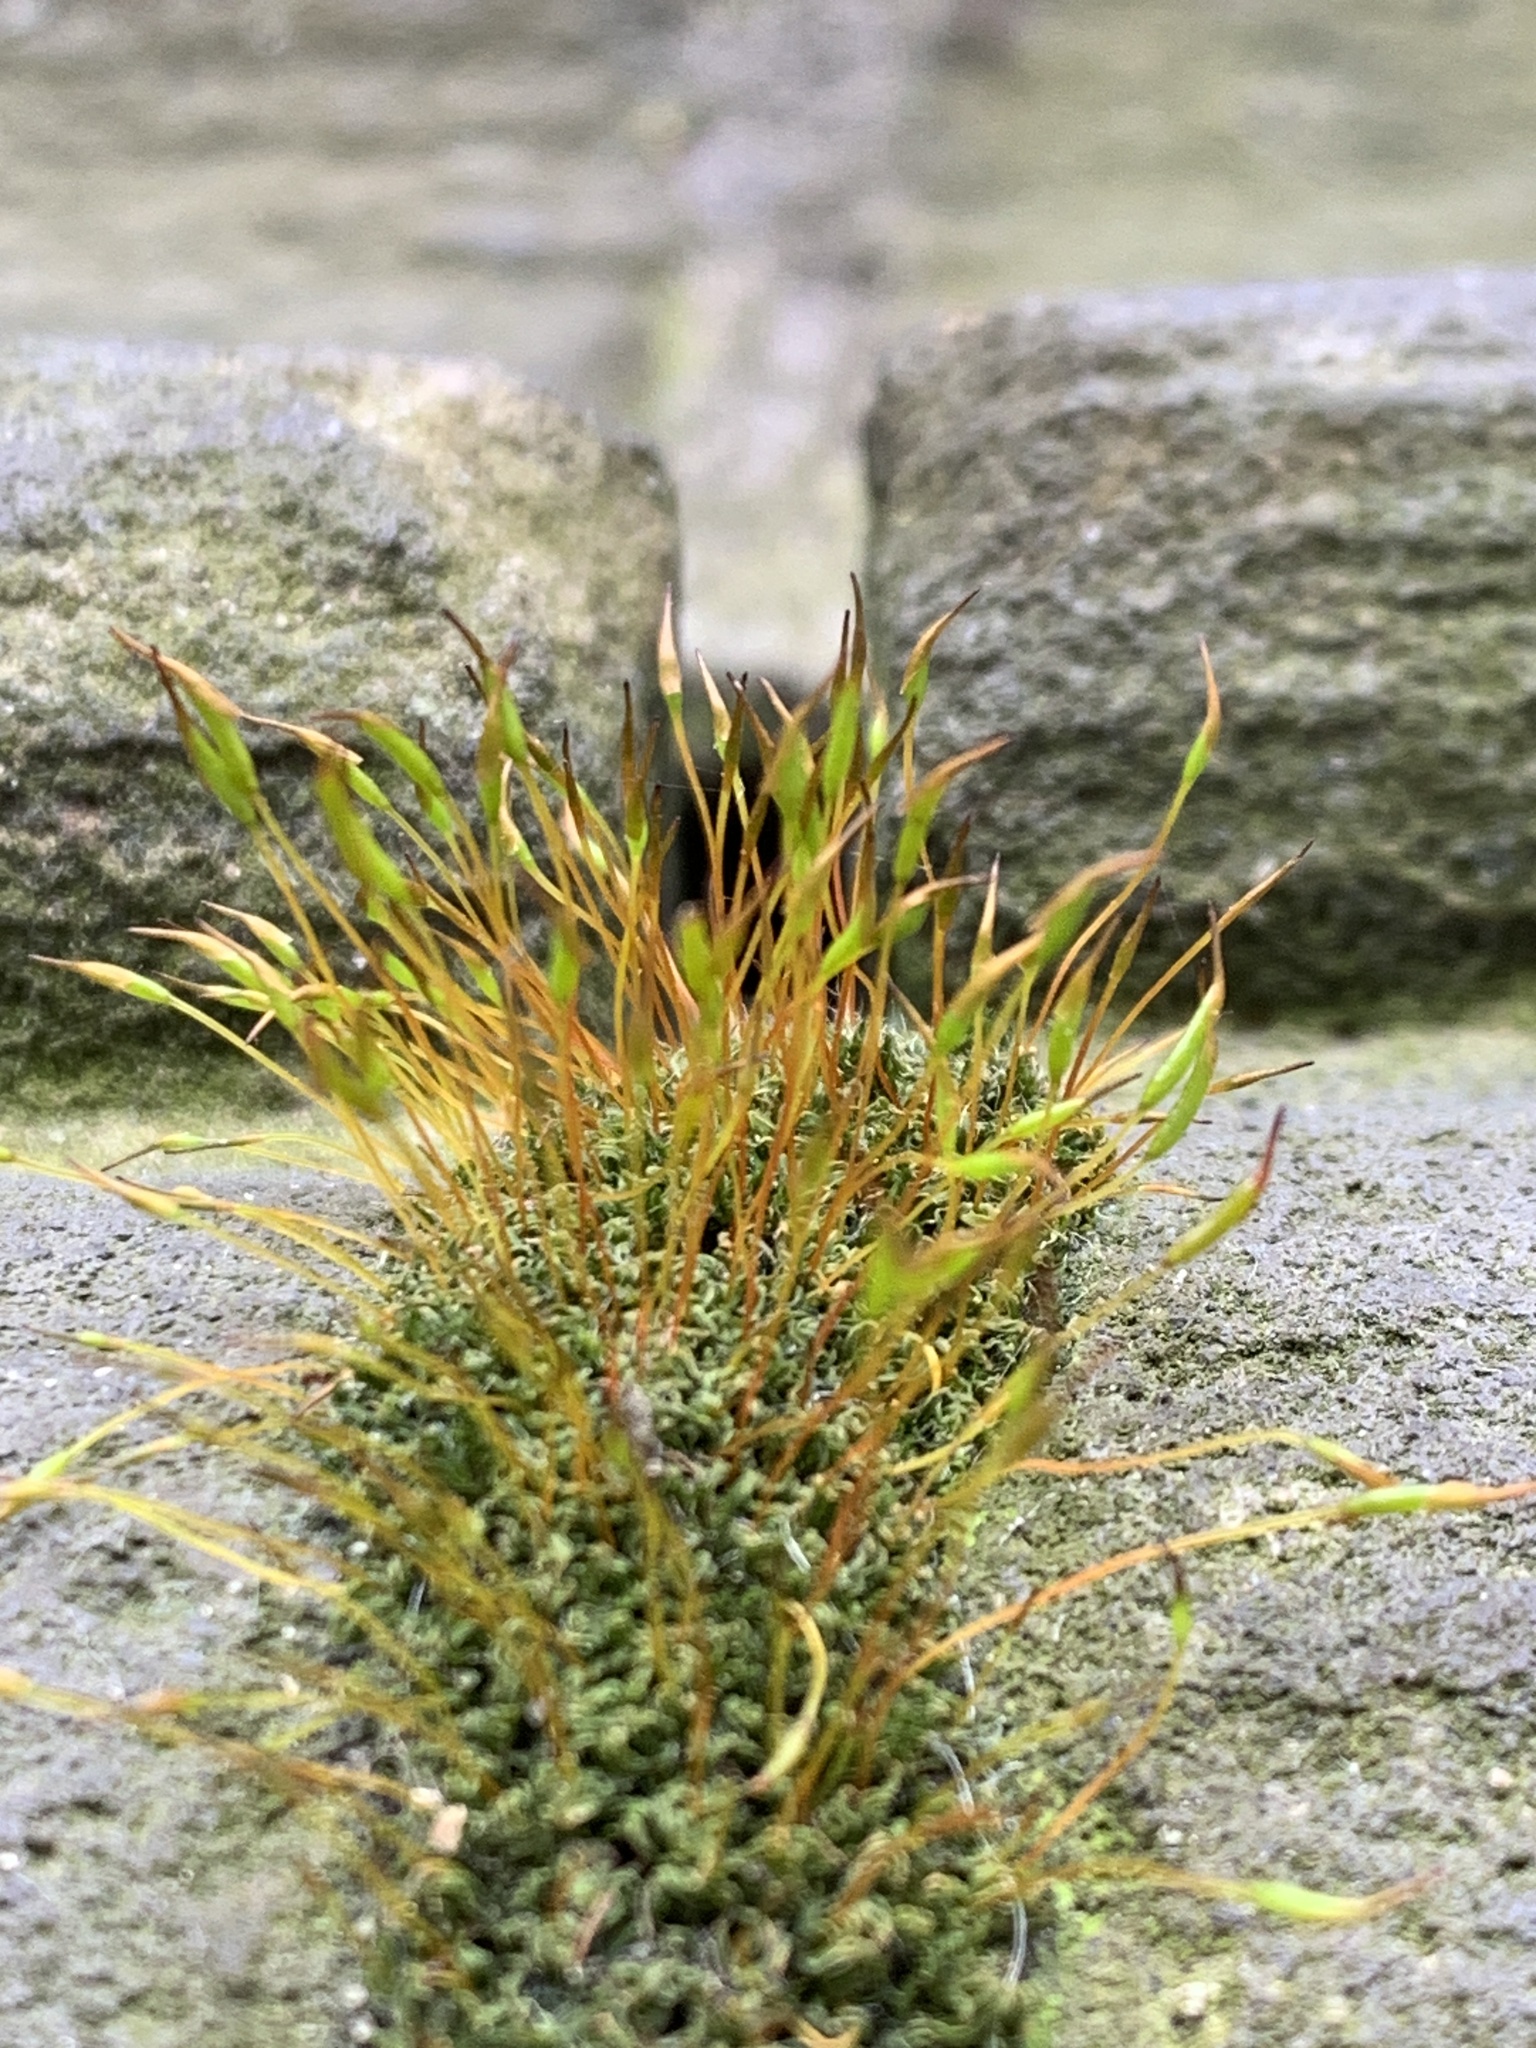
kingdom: Plantae
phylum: Bryophyta
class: Bryopsida
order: Pottiales
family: Pottiaceae
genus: Tortula
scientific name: Tortula muralis
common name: Wall screw-moss
